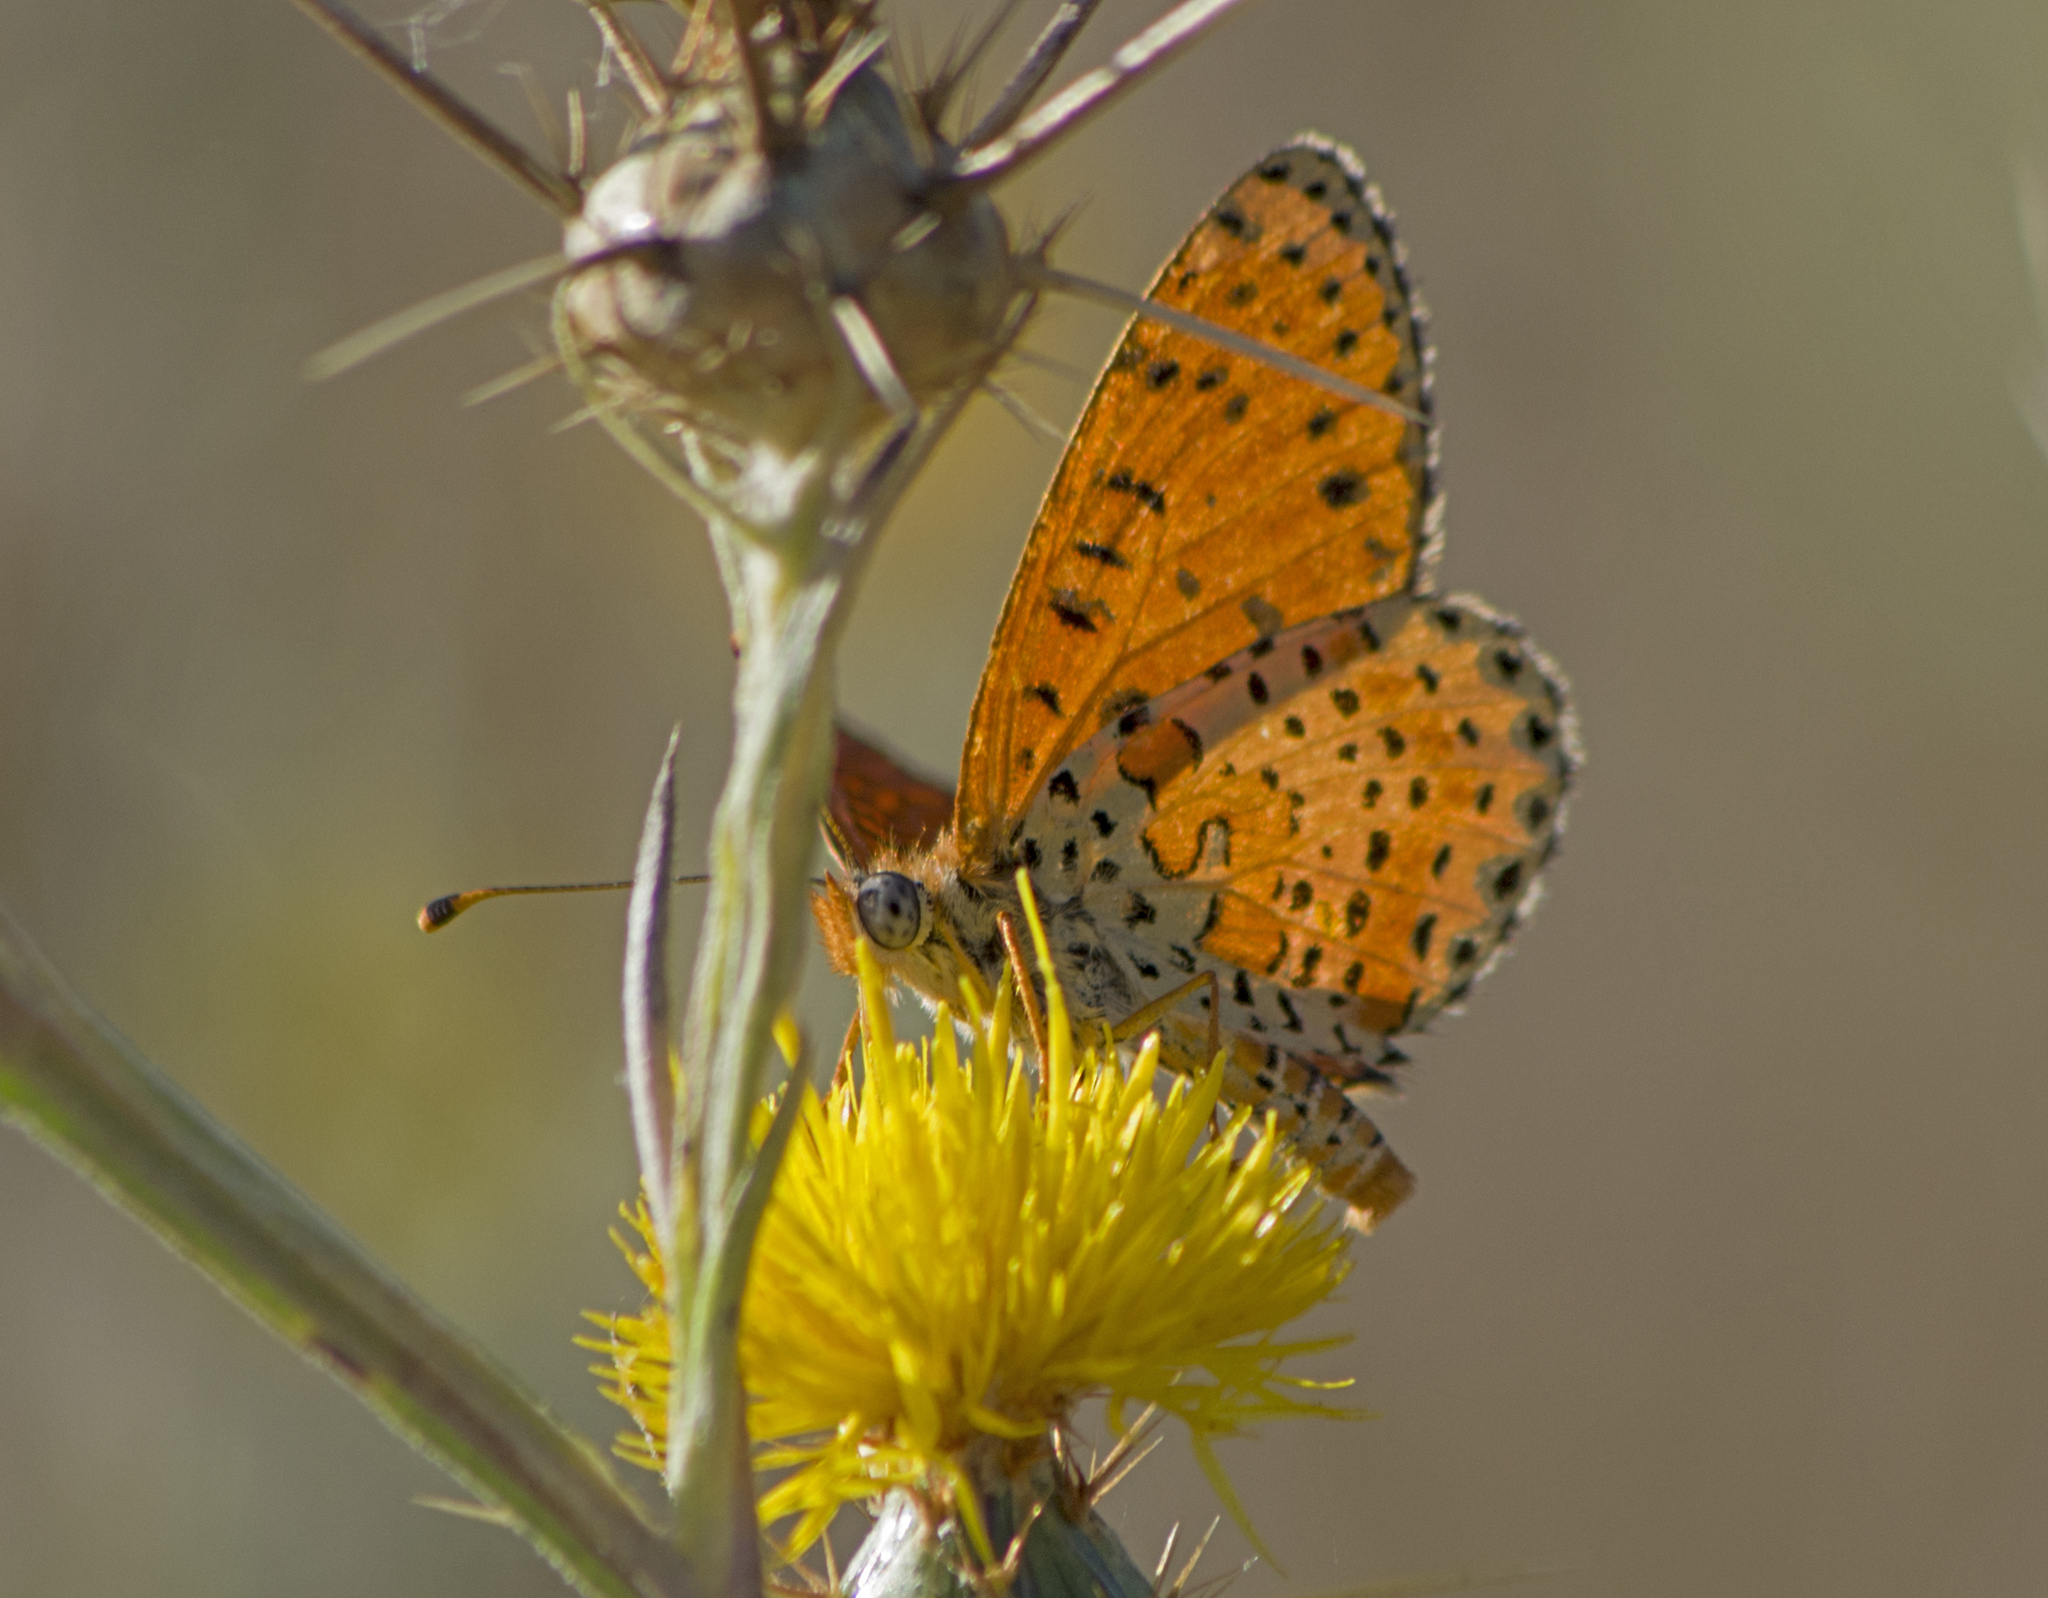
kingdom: Animalia
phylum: Arthropoda
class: Insecta
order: Lepidoptera
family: Nymphalidae
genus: Melitaea
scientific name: Melitaea didyma
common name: Spotted fritillary
